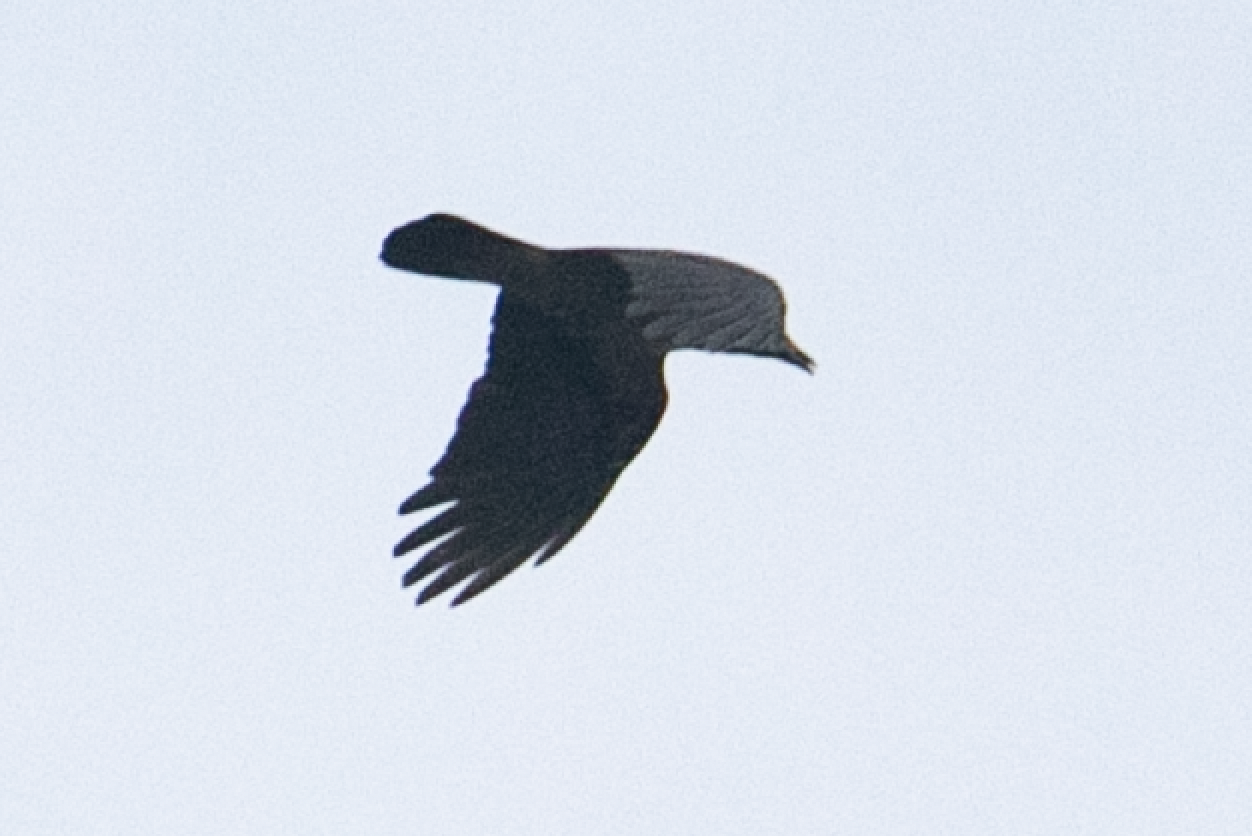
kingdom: Animalia
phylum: Chordata
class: Aves
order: Passeriformes
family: Corvidae
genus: Corvus
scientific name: Corvus corone
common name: Carrion crow
